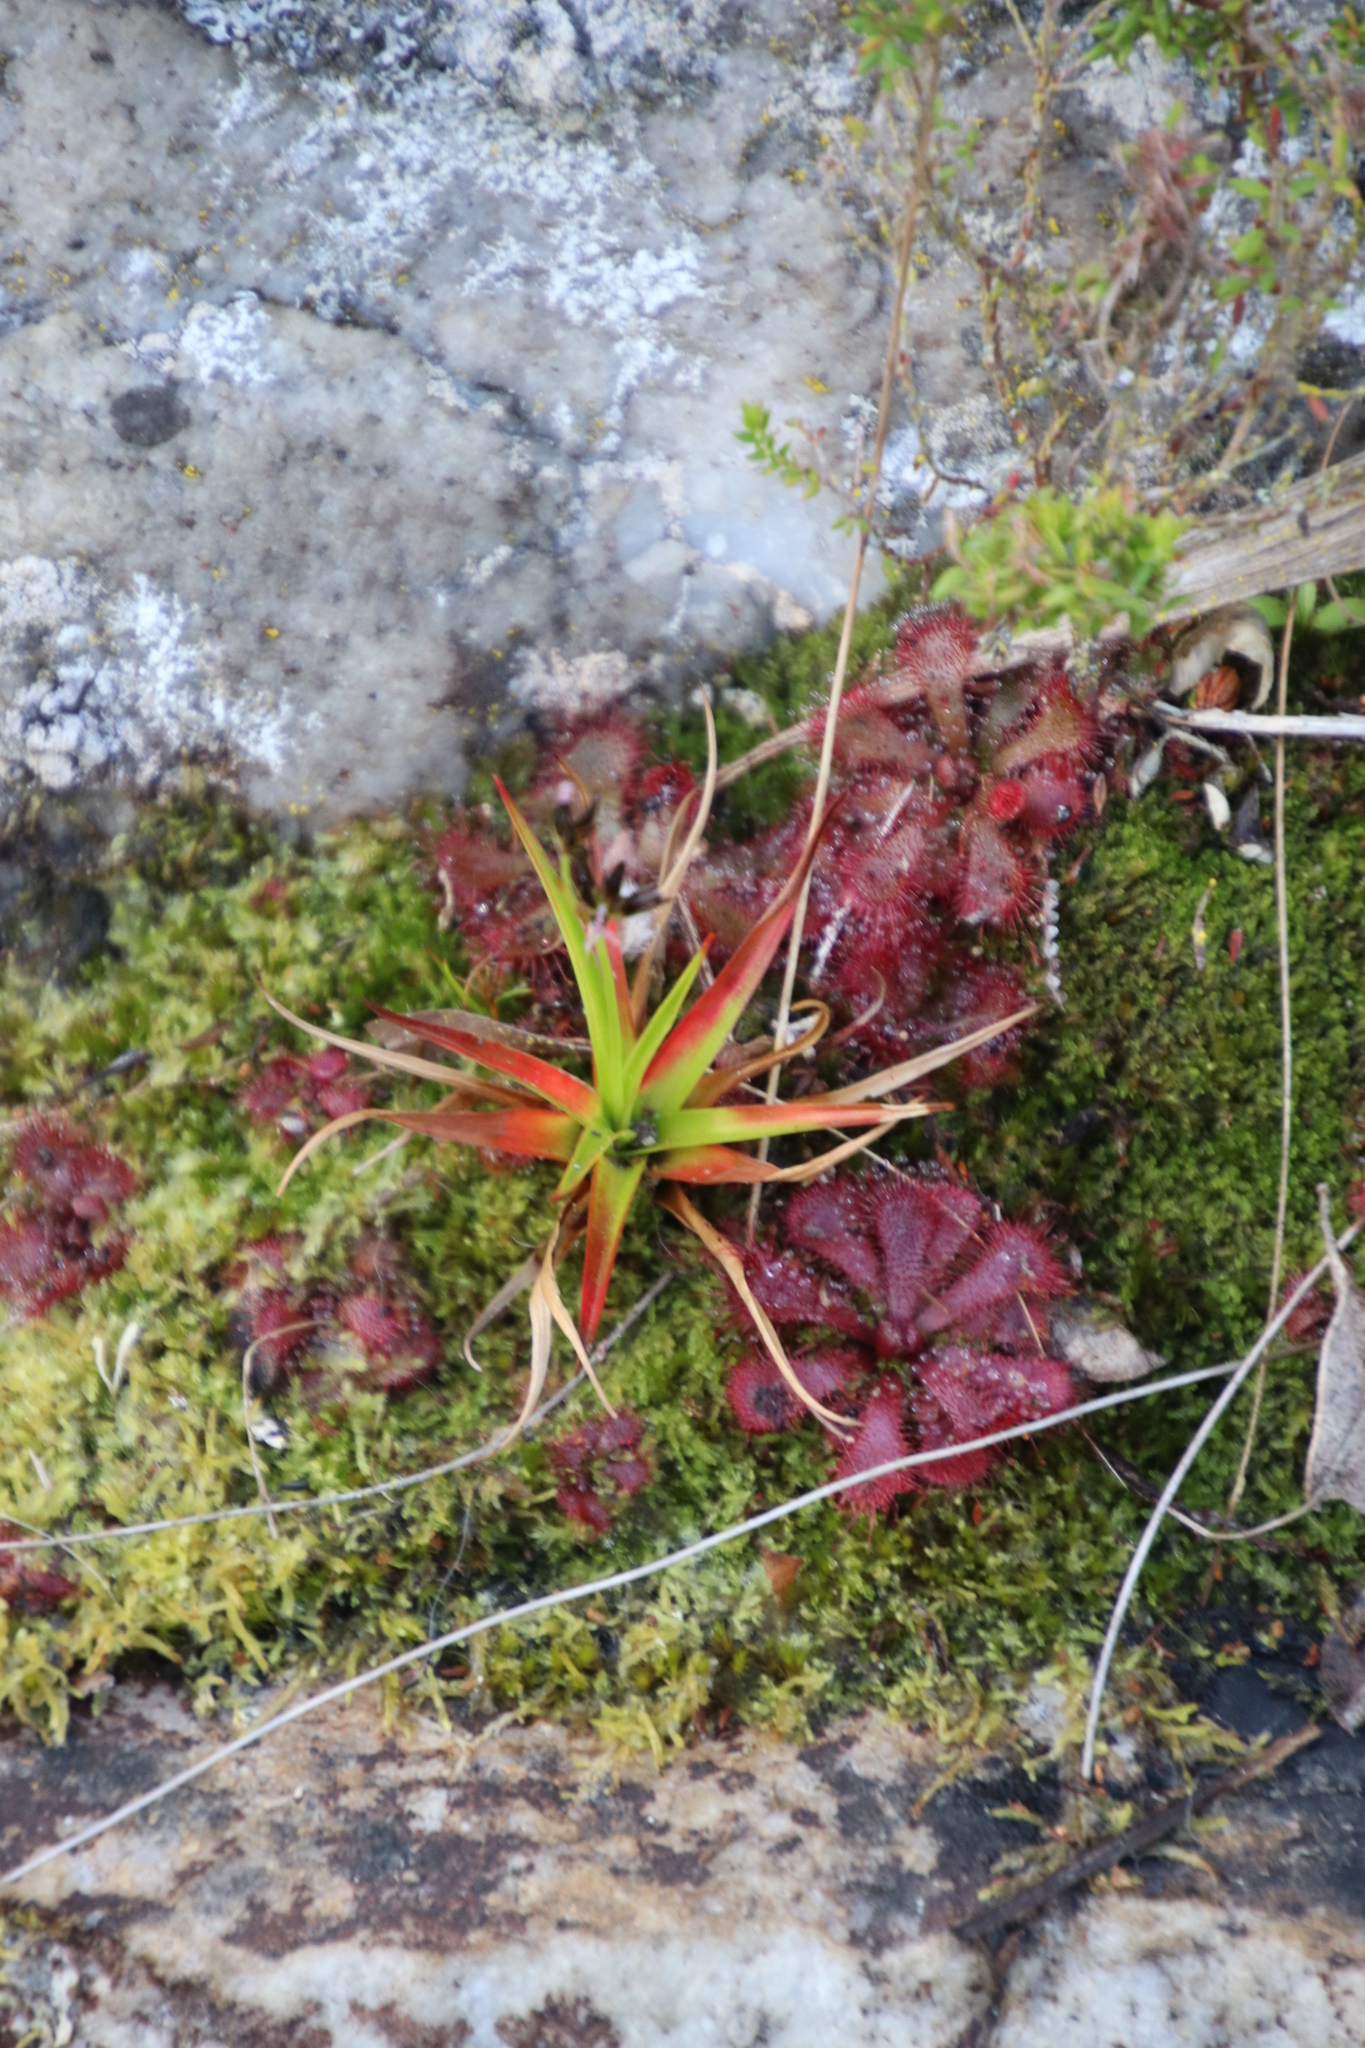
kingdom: Plantae
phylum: Tracheophyta
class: Liliopsida
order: Poales
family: Juncaceae
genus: Juncus
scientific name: Juncus lomatophyllus
